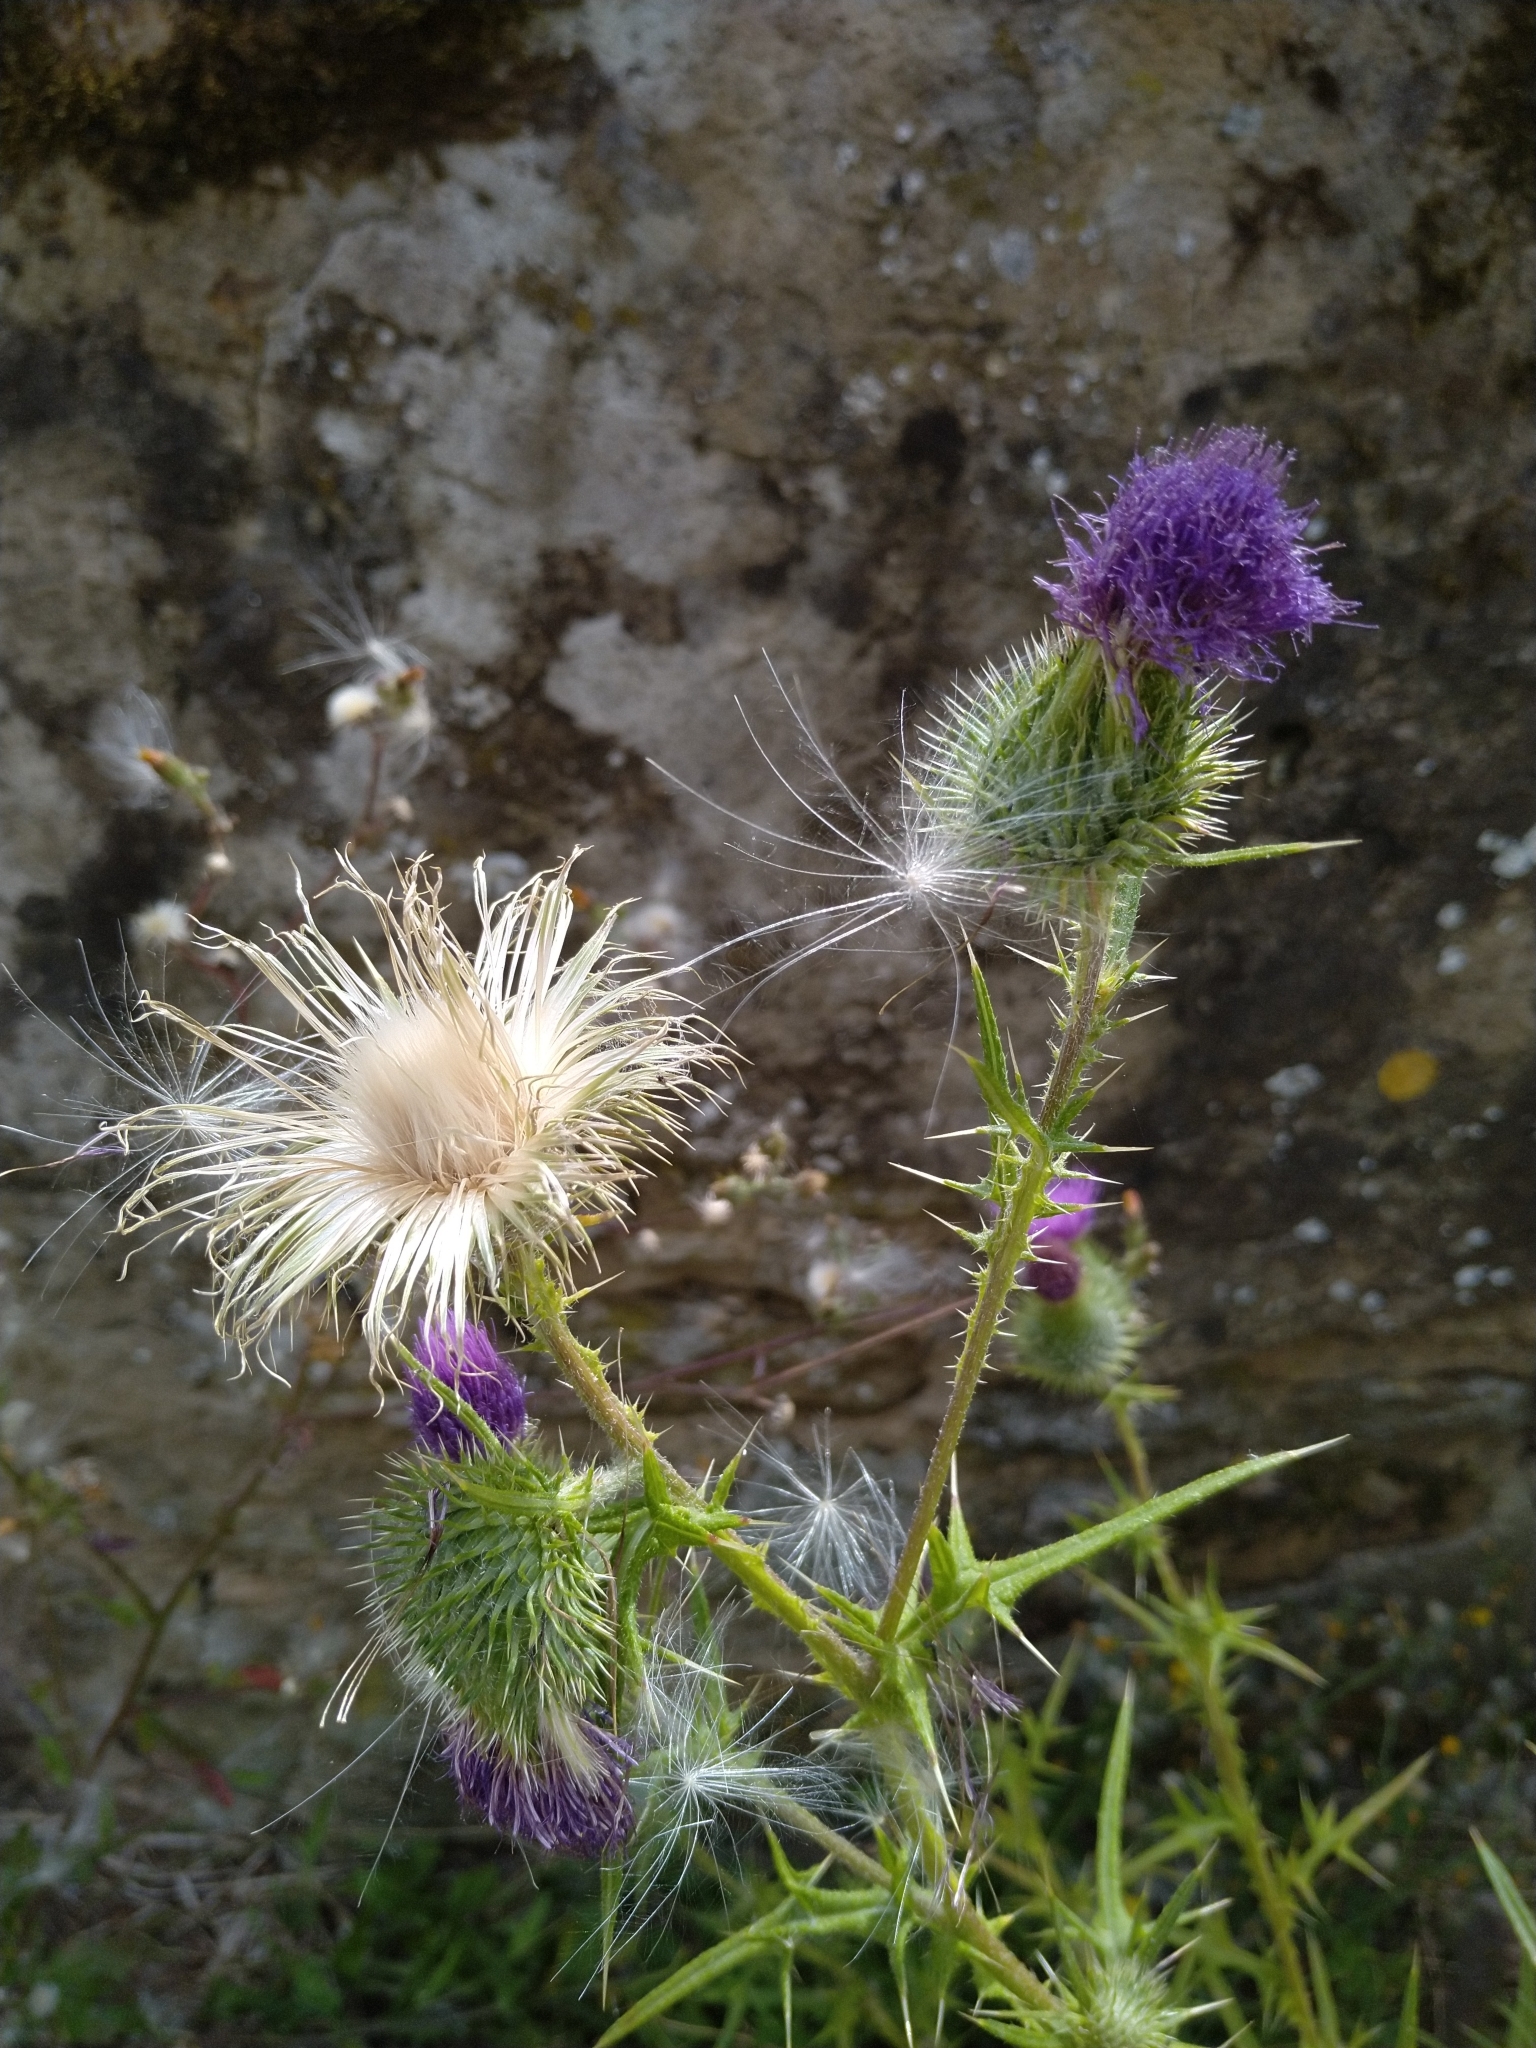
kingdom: Plantae
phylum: Tracheophyta
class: Magnoliopsida
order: Asterales
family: Asteraceae
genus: Cirsium
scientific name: Cirsium vulgare
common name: Bull thistle
